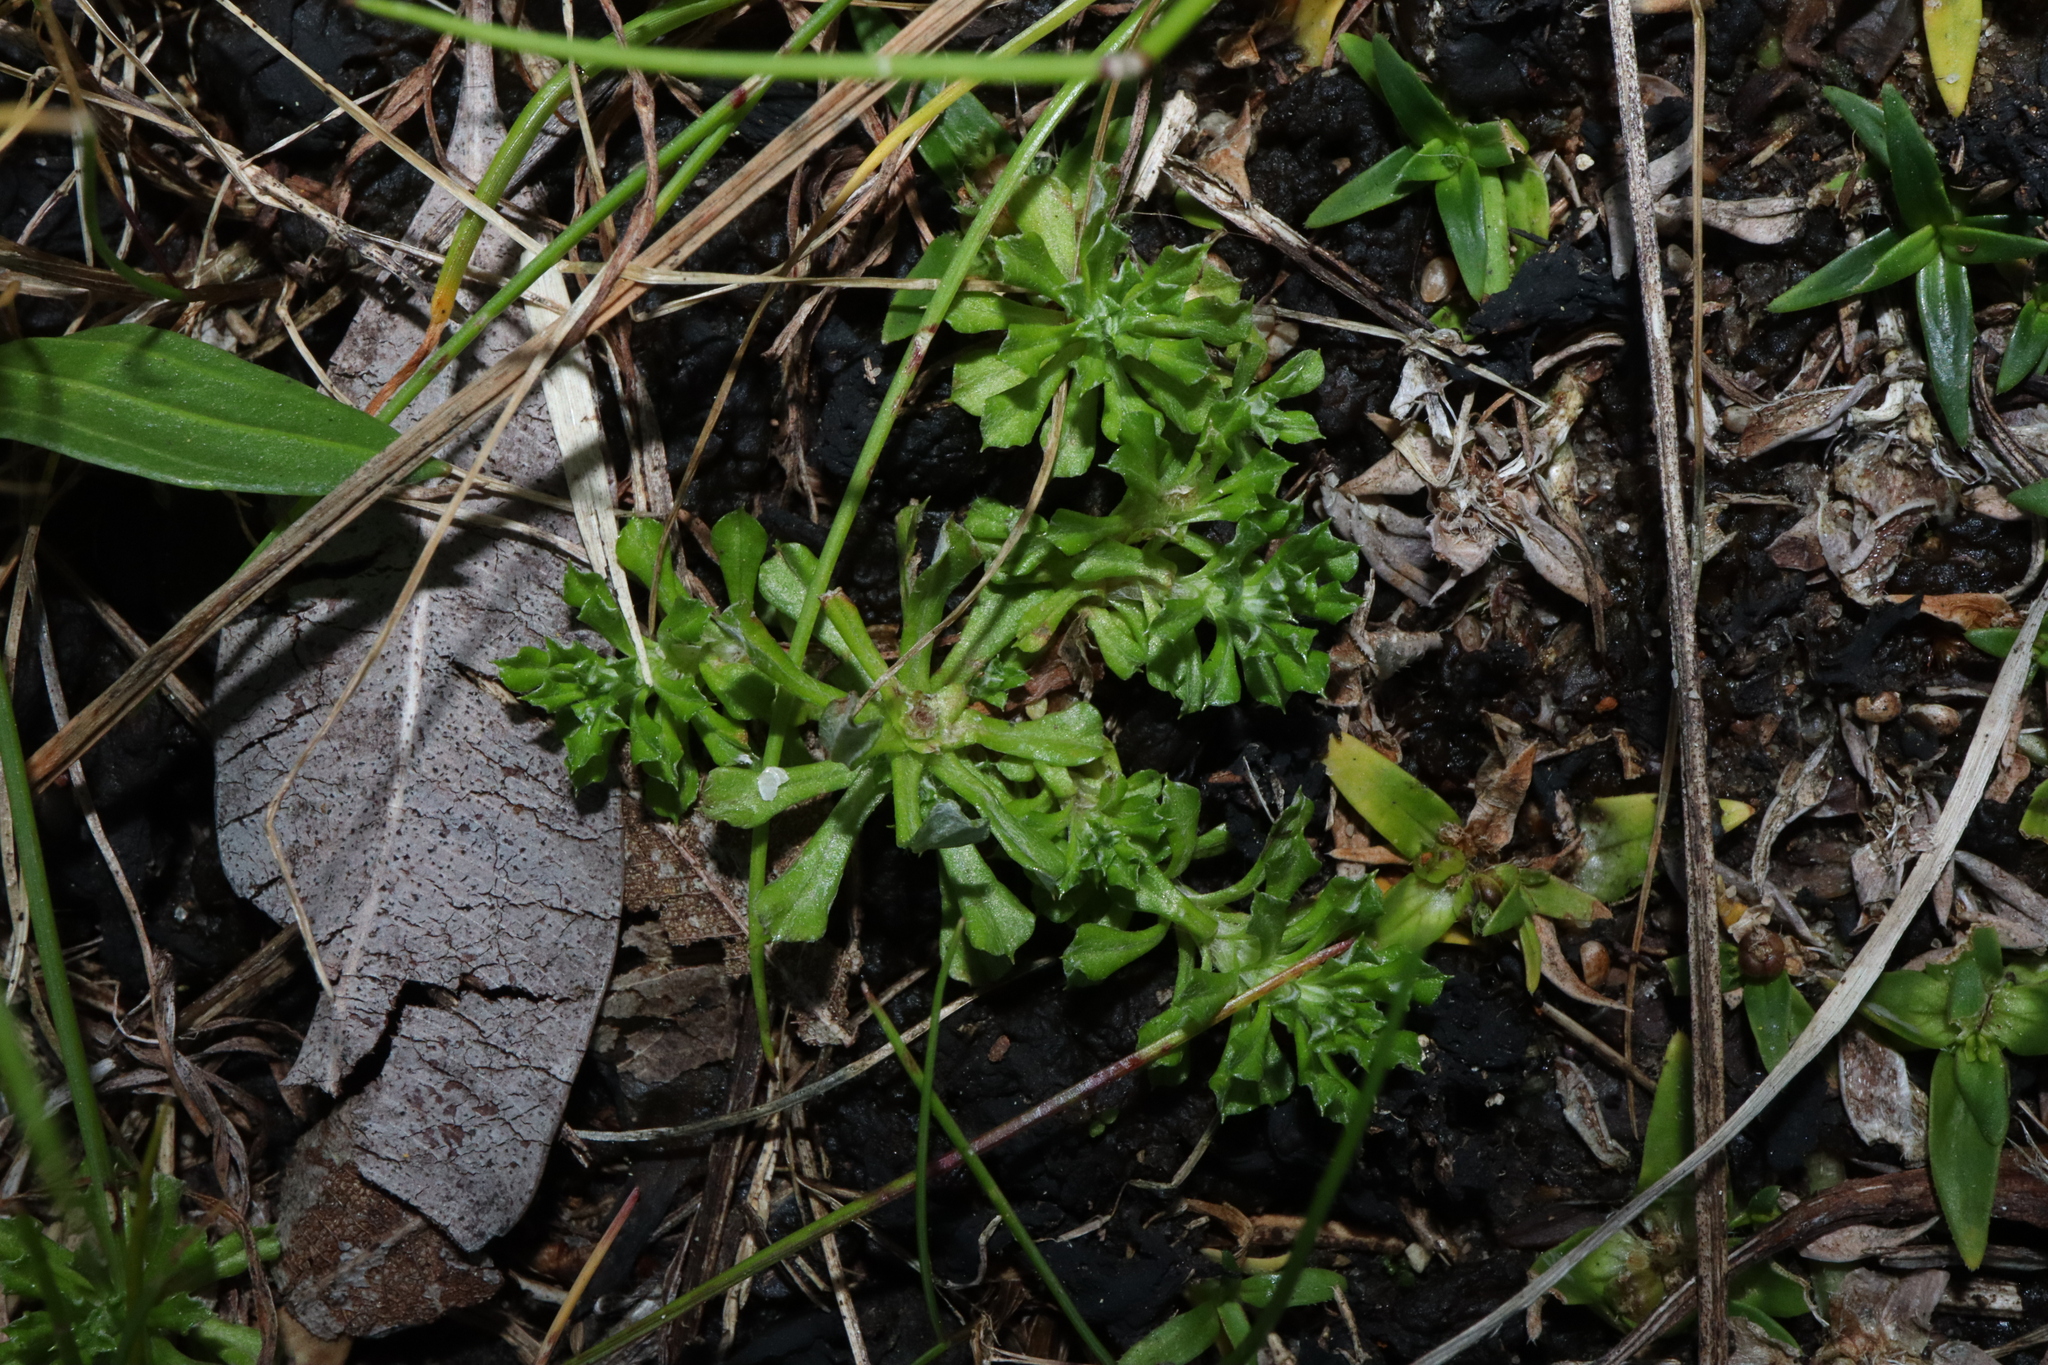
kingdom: Plantae
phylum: Tracheophyta
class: Magnoliopsida
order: Asterales
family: Asteraceae
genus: Facelis
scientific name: Facelis retusa
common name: Annual trampweed
